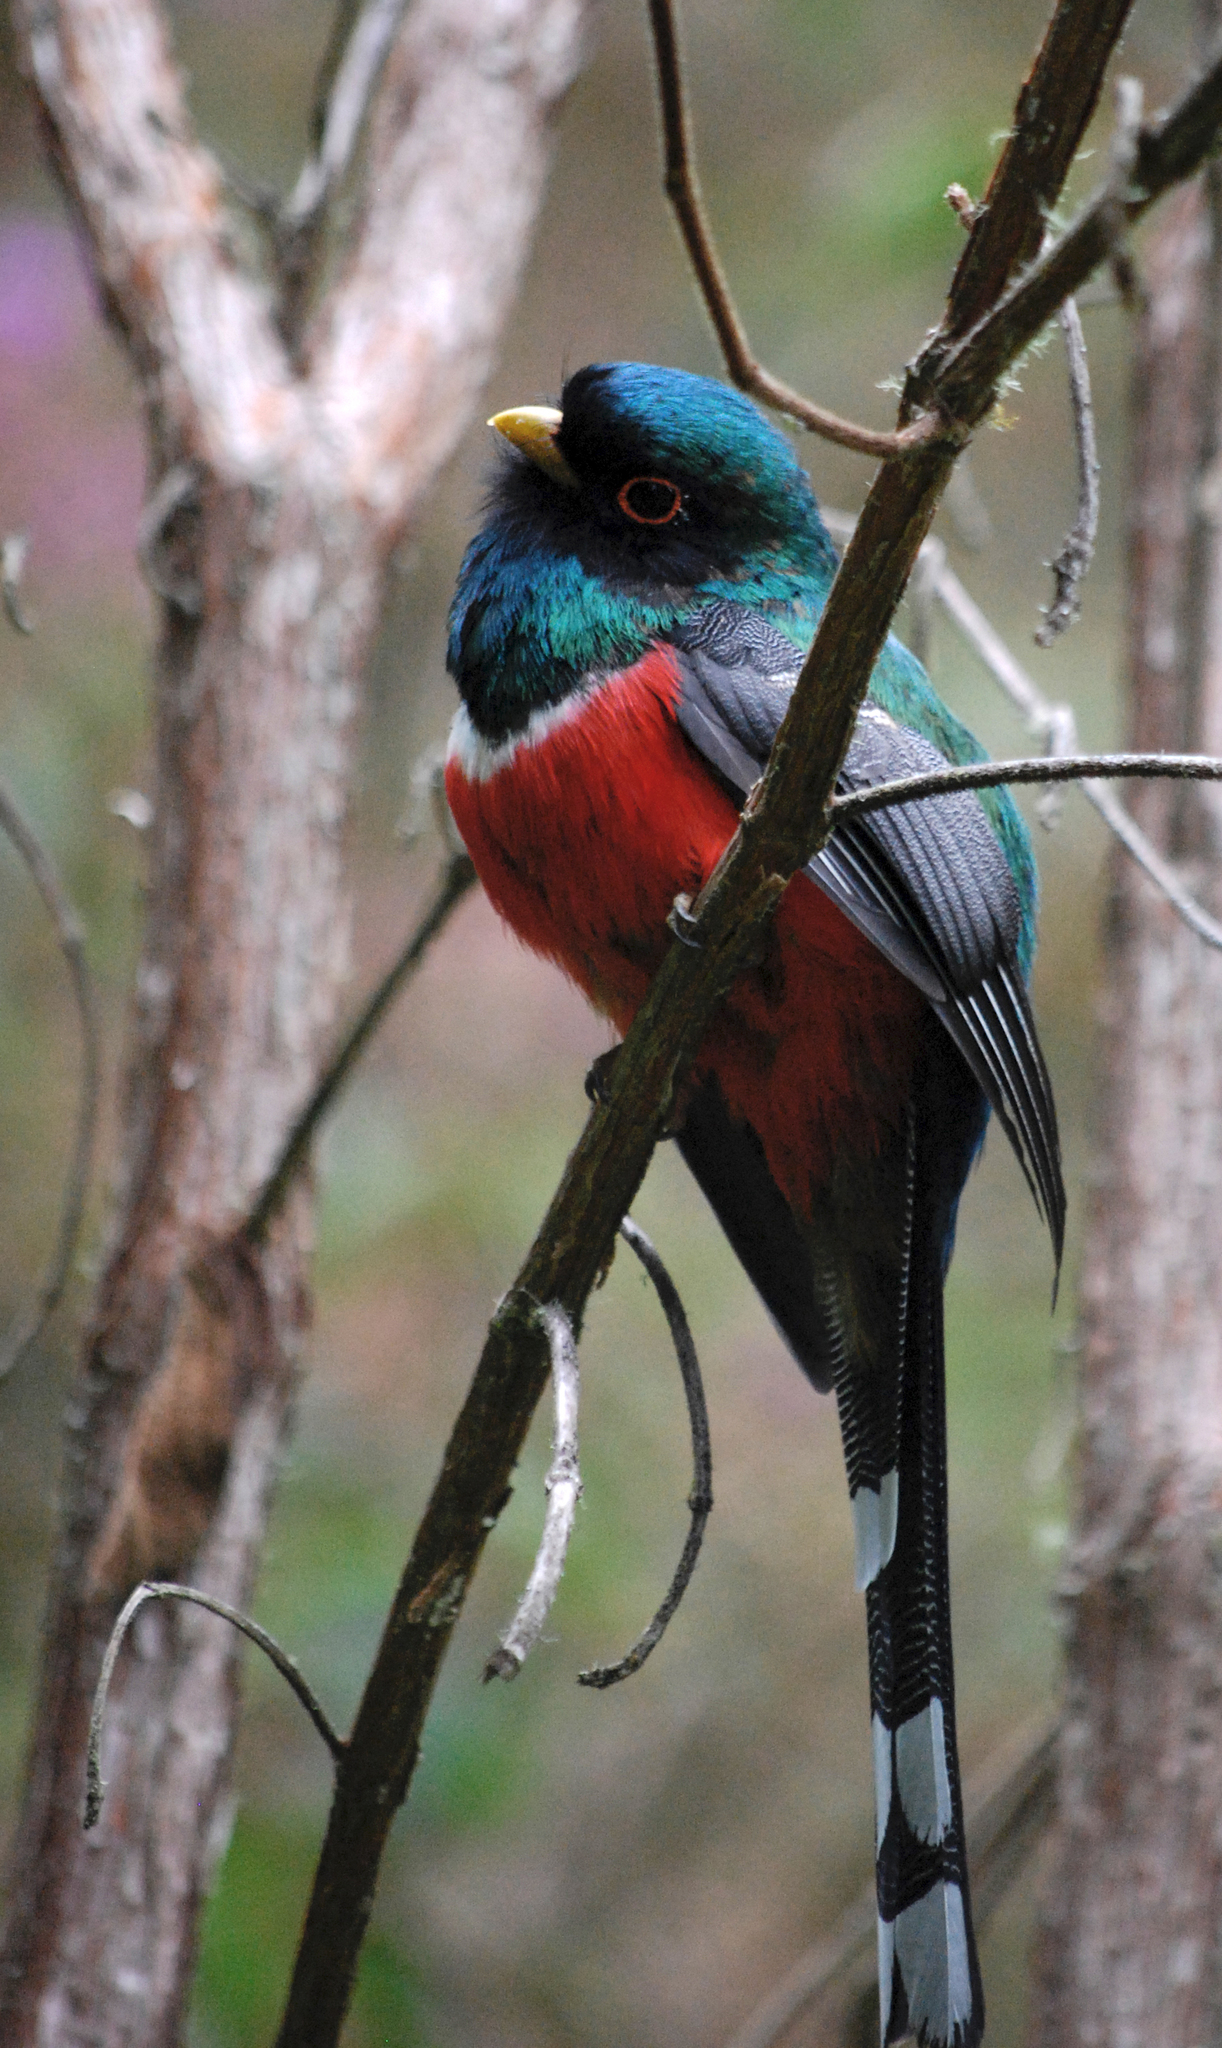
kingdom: Animalia
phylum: Chordata
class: Aves
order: Trogoniformes
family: Trogonidae
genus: Trogon
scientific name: Trogon personatus
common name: Masked trogon
